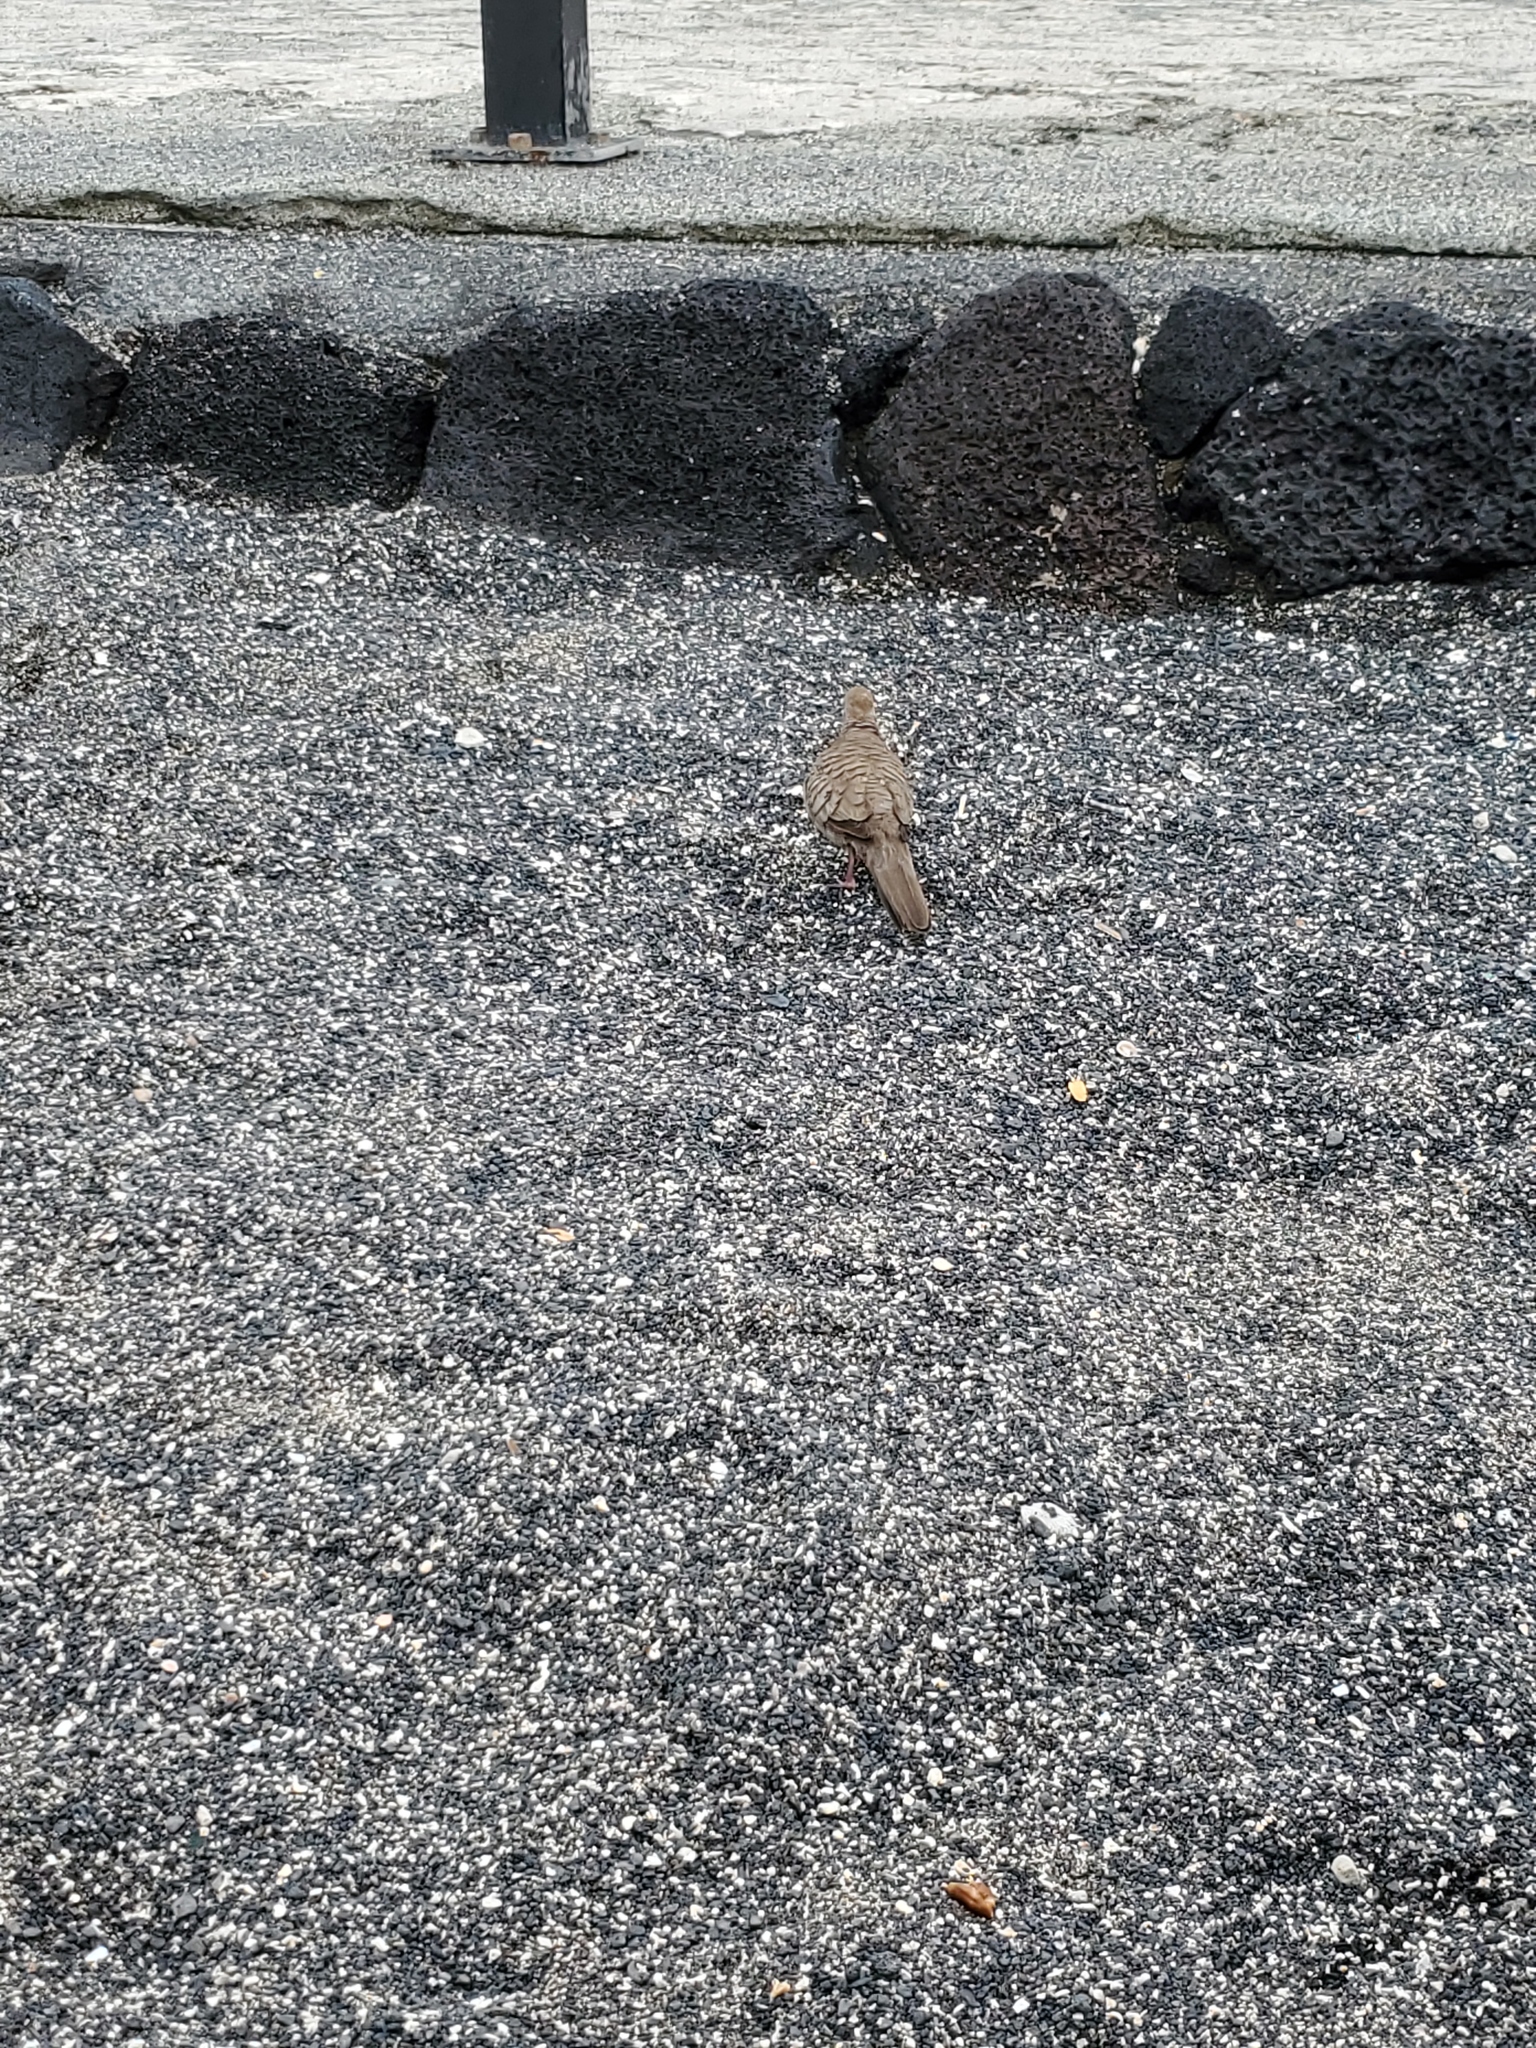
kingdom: Animalia
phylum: Chordata
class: Aves
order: Columbiformes
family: Columbidae
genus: Geopelia
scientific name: Geopelia striata
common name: Zebra dove
